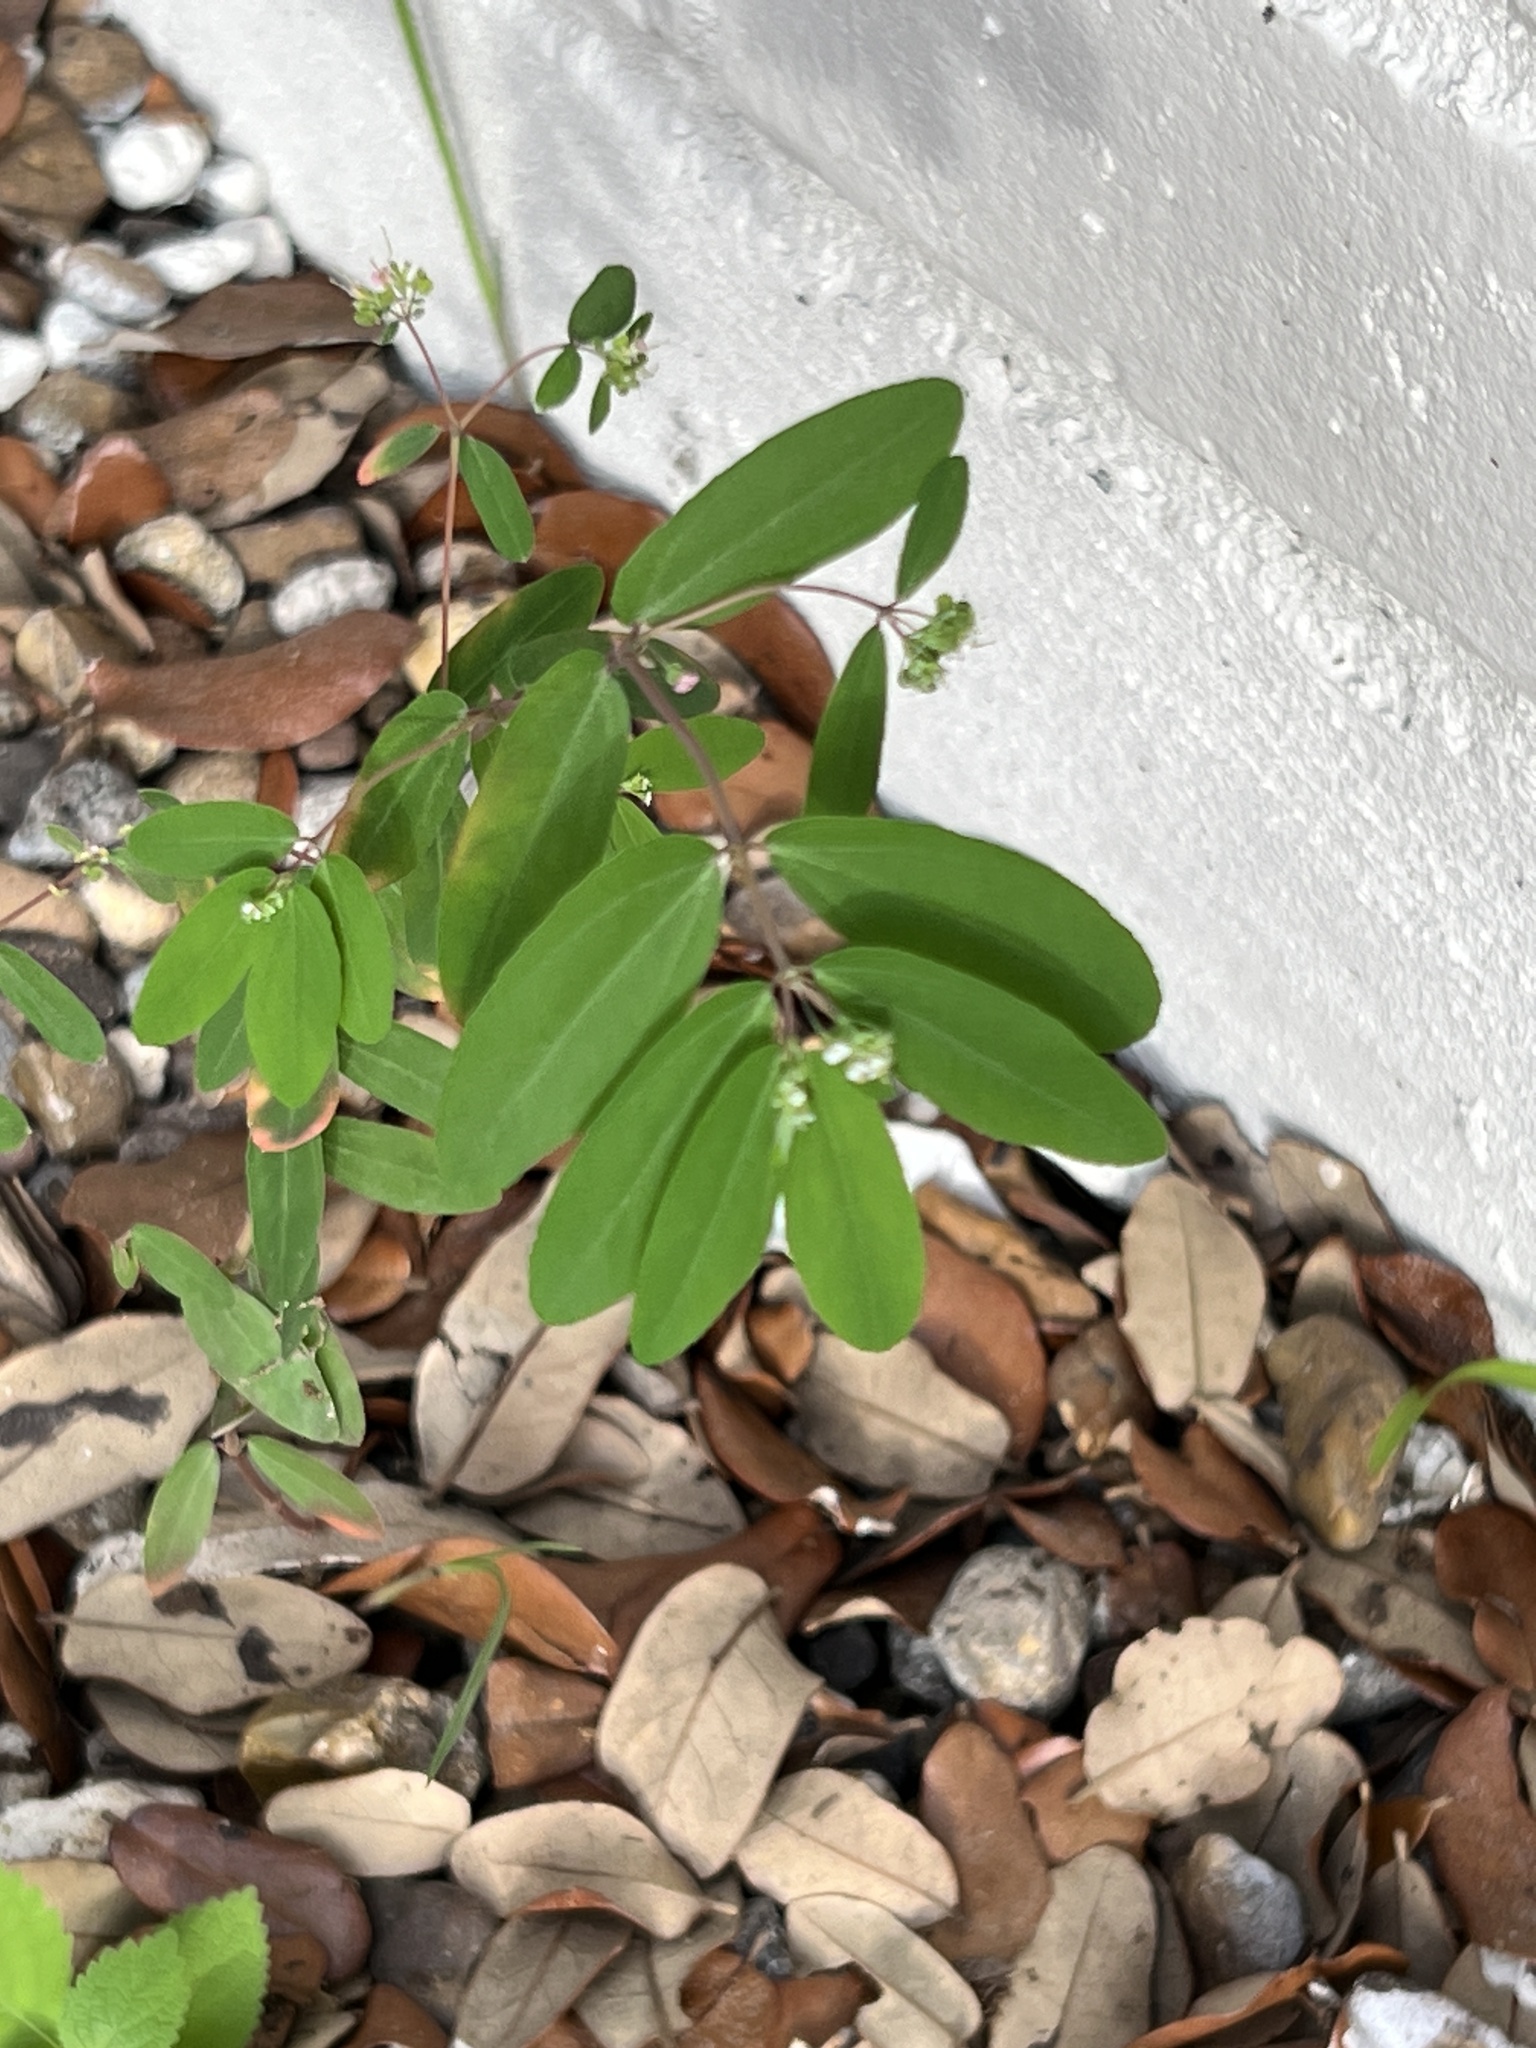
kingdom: Plantae
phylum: Tracheophyta
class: Magnoliopsida
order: Malpighiales
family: Euphorbiaceae
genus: Euphorbia
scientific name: Euphorbia hypericifolia
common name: Graceful sandmat
